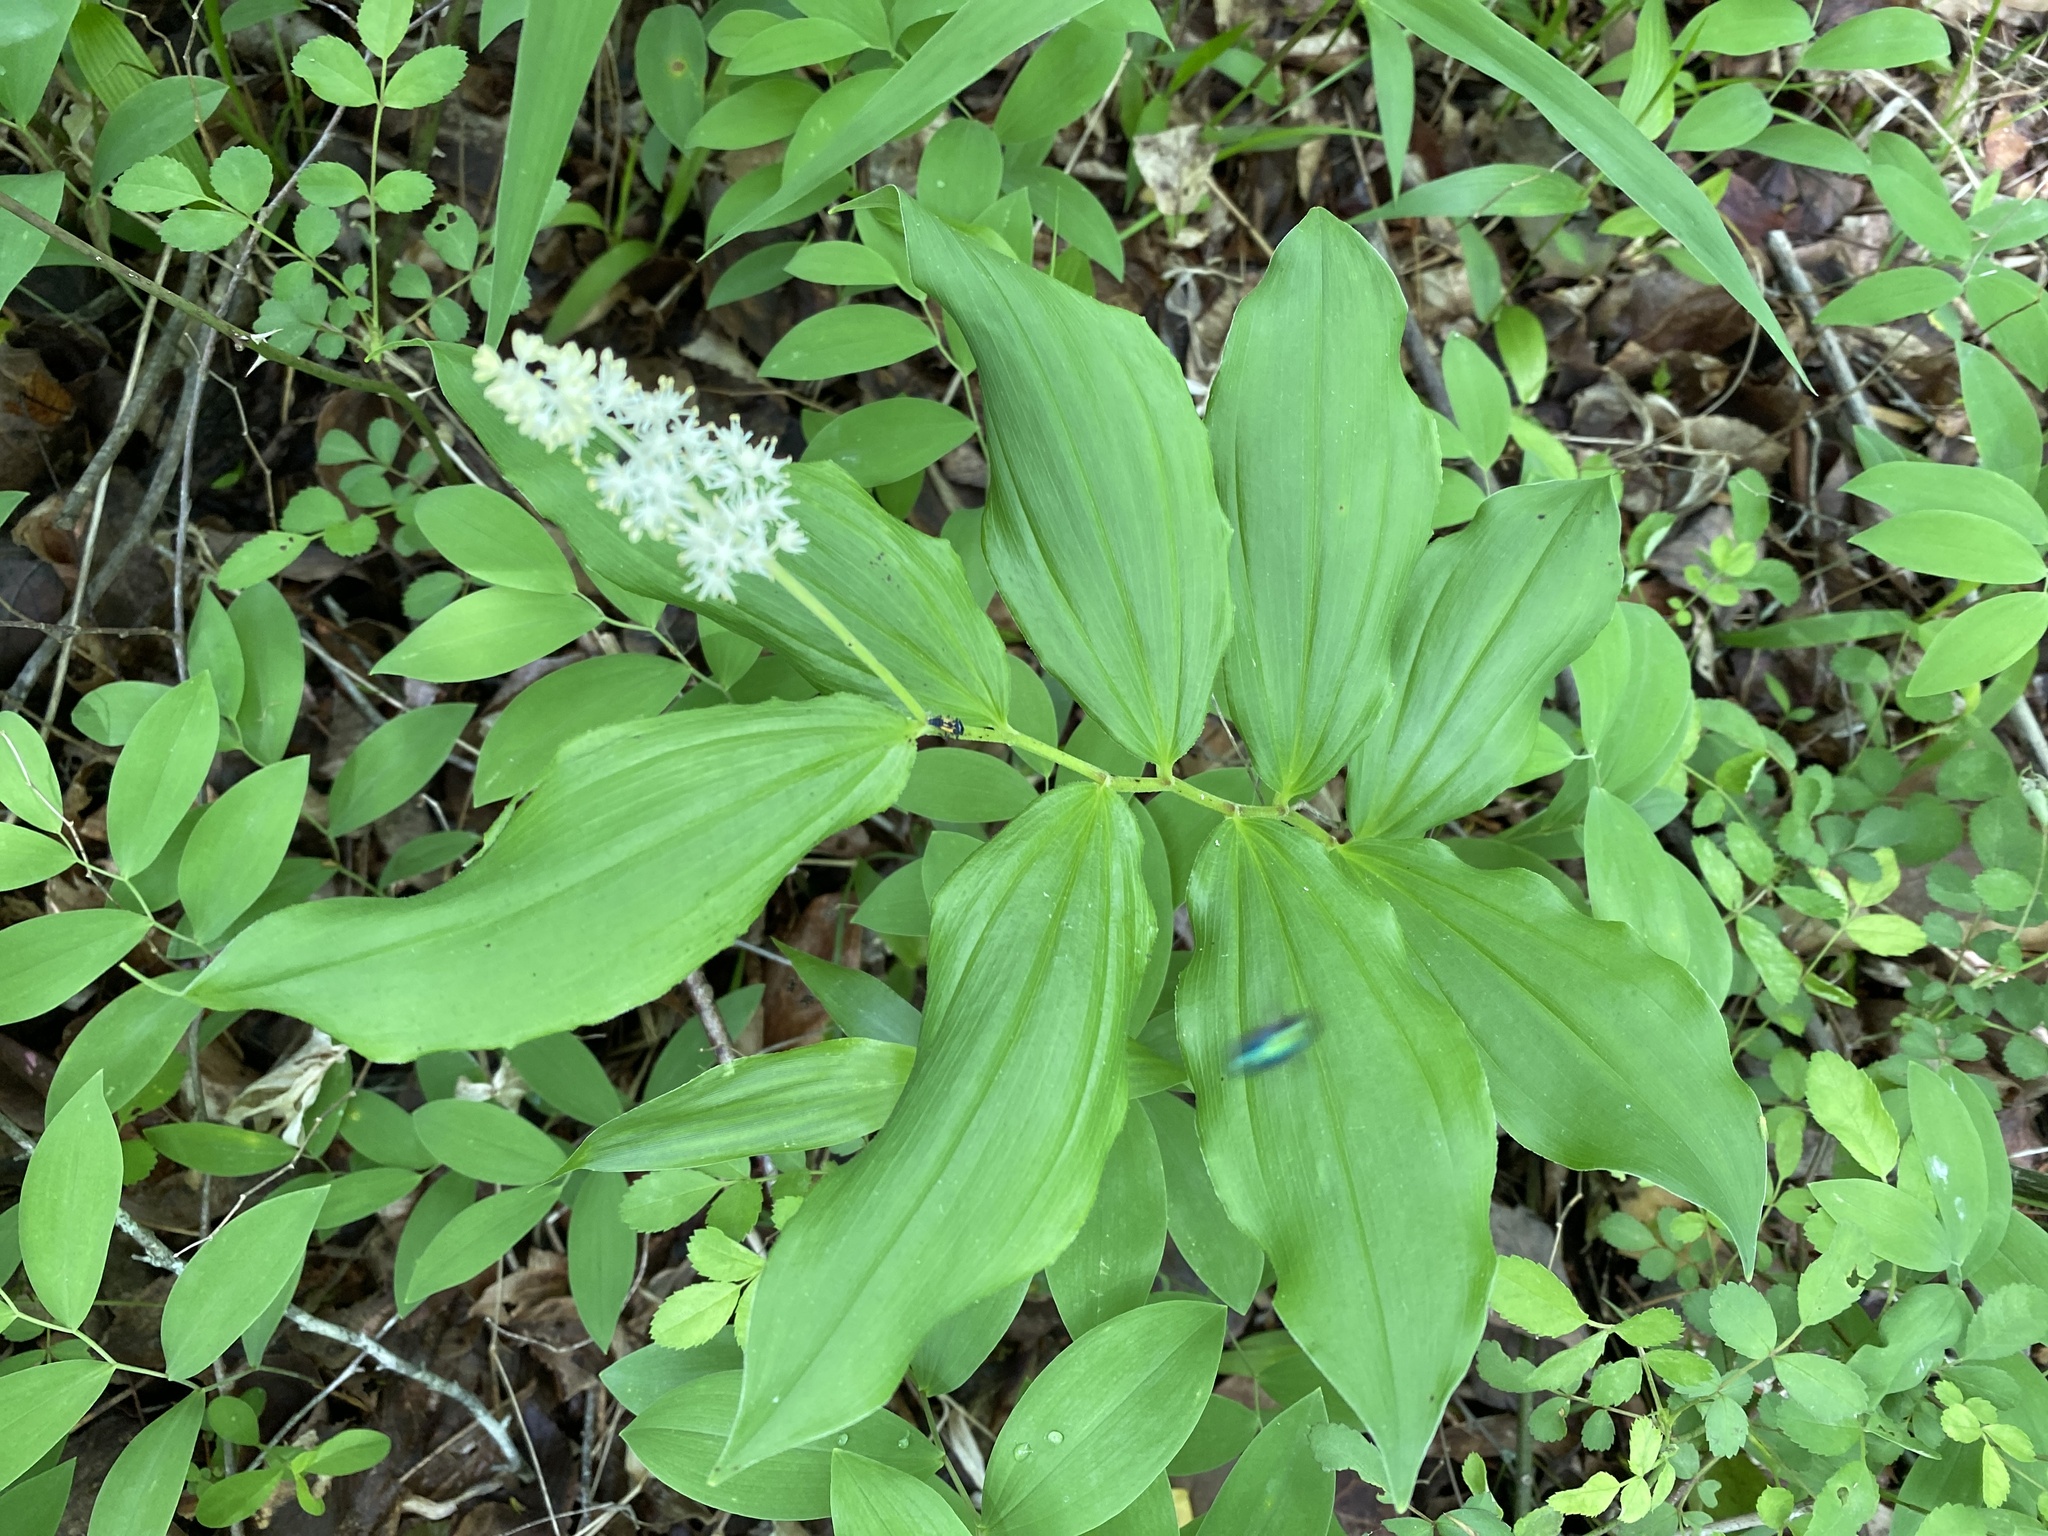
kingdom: Plantae
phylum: Tracheophyta
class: Liliopsida
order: Asparagales
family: Asparagaceae
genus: Maianthemum
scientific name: Maianthemum racemosum
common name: False spikenard
